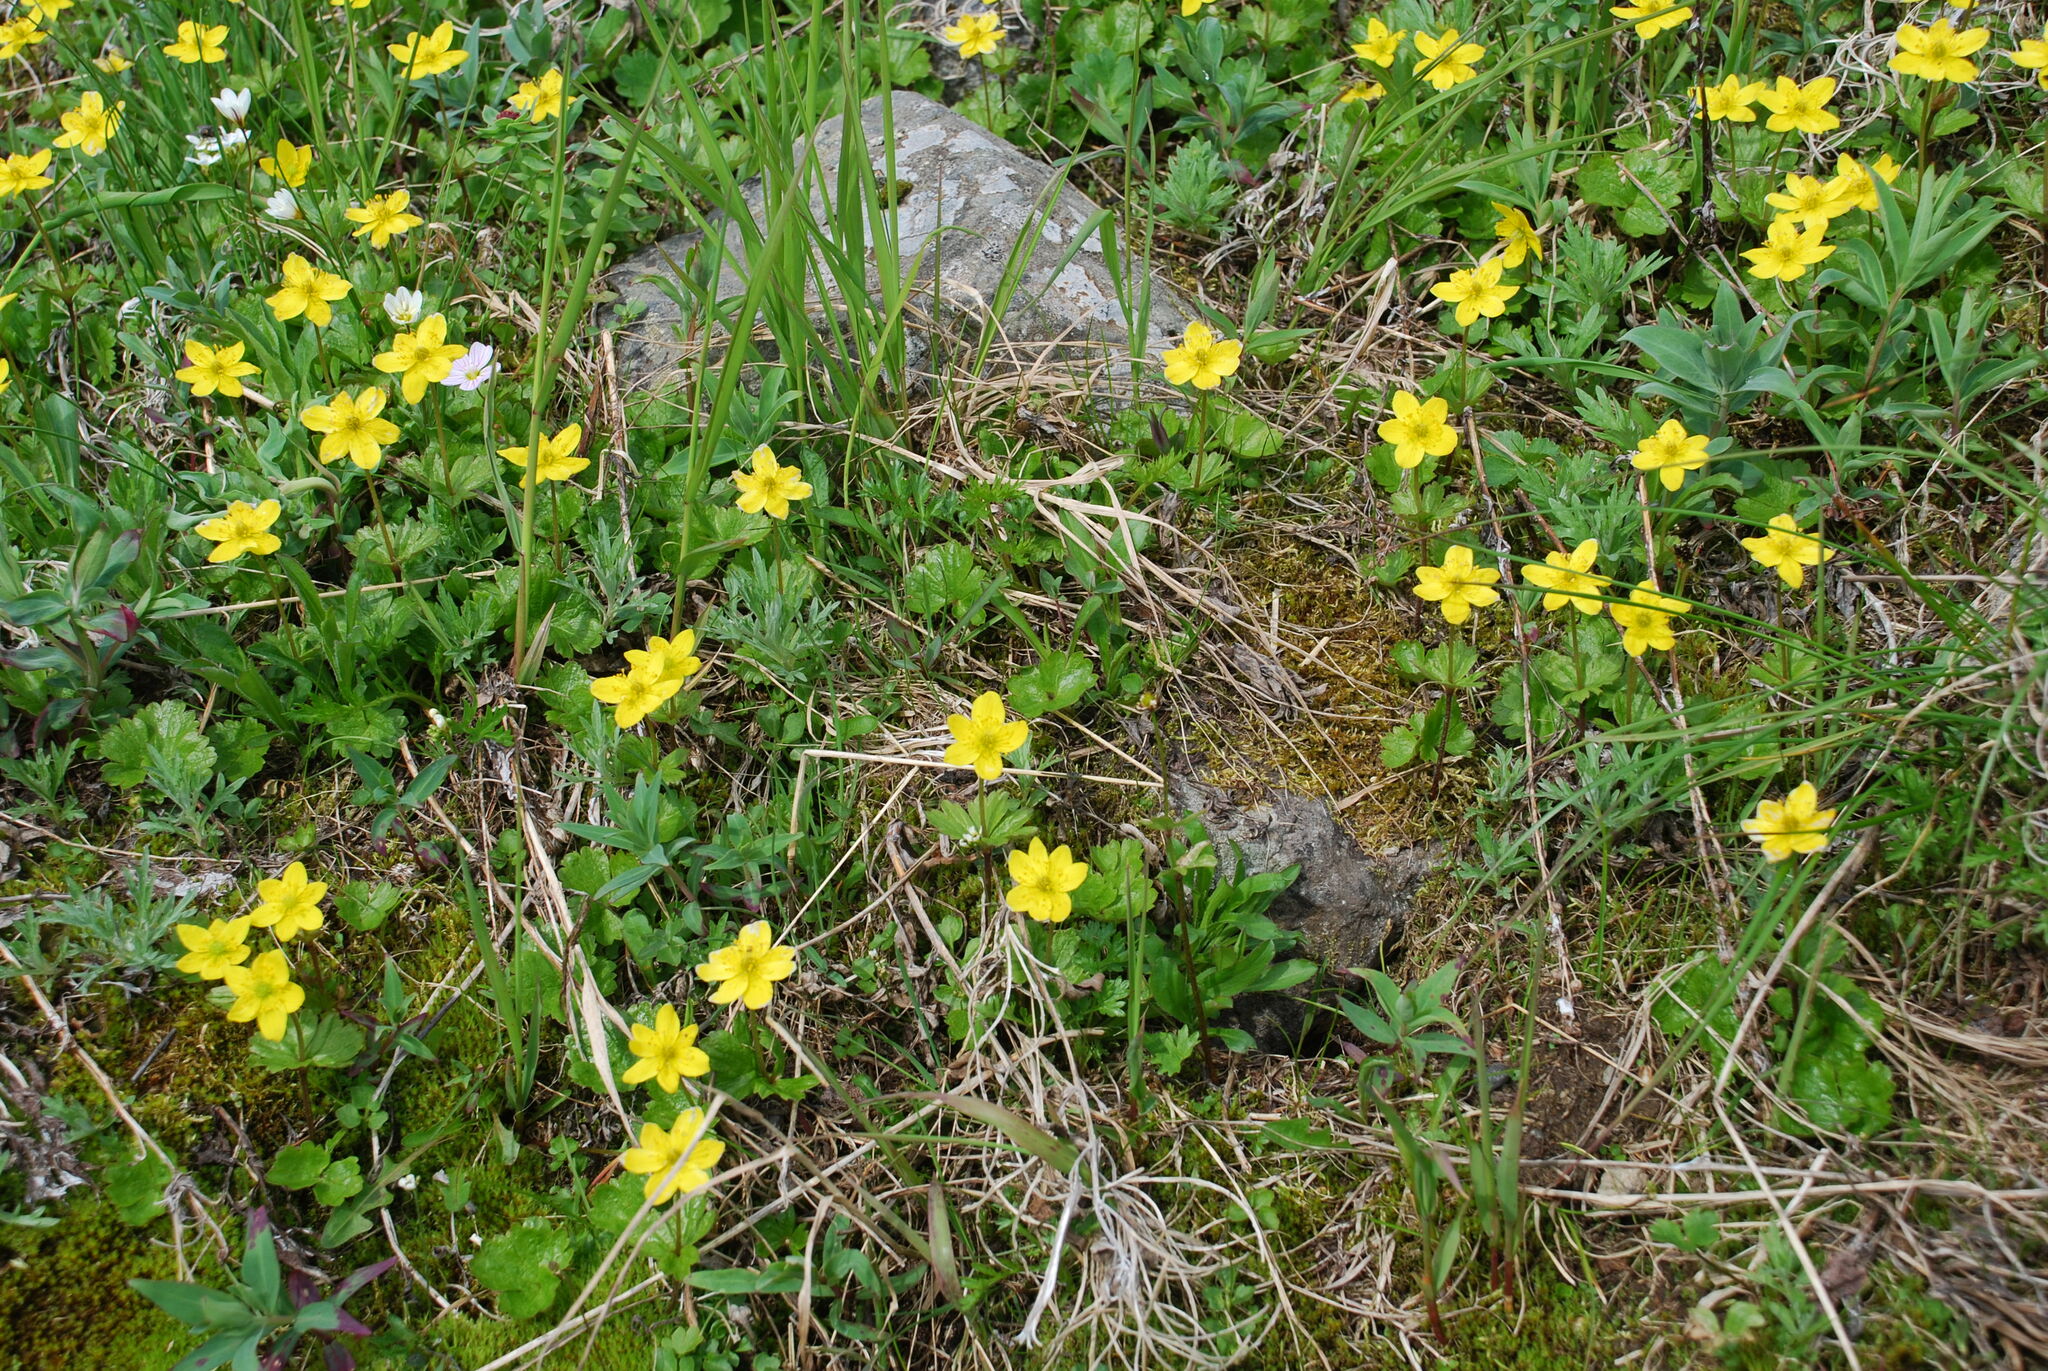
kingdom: Plantae
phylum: Tracheophyta
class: Magnoliopsida
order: Ranunculales
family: Ranunculaceae
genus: Anemonastrum
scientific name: Anemonastrum richardsonii
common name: Richardson's anemone
